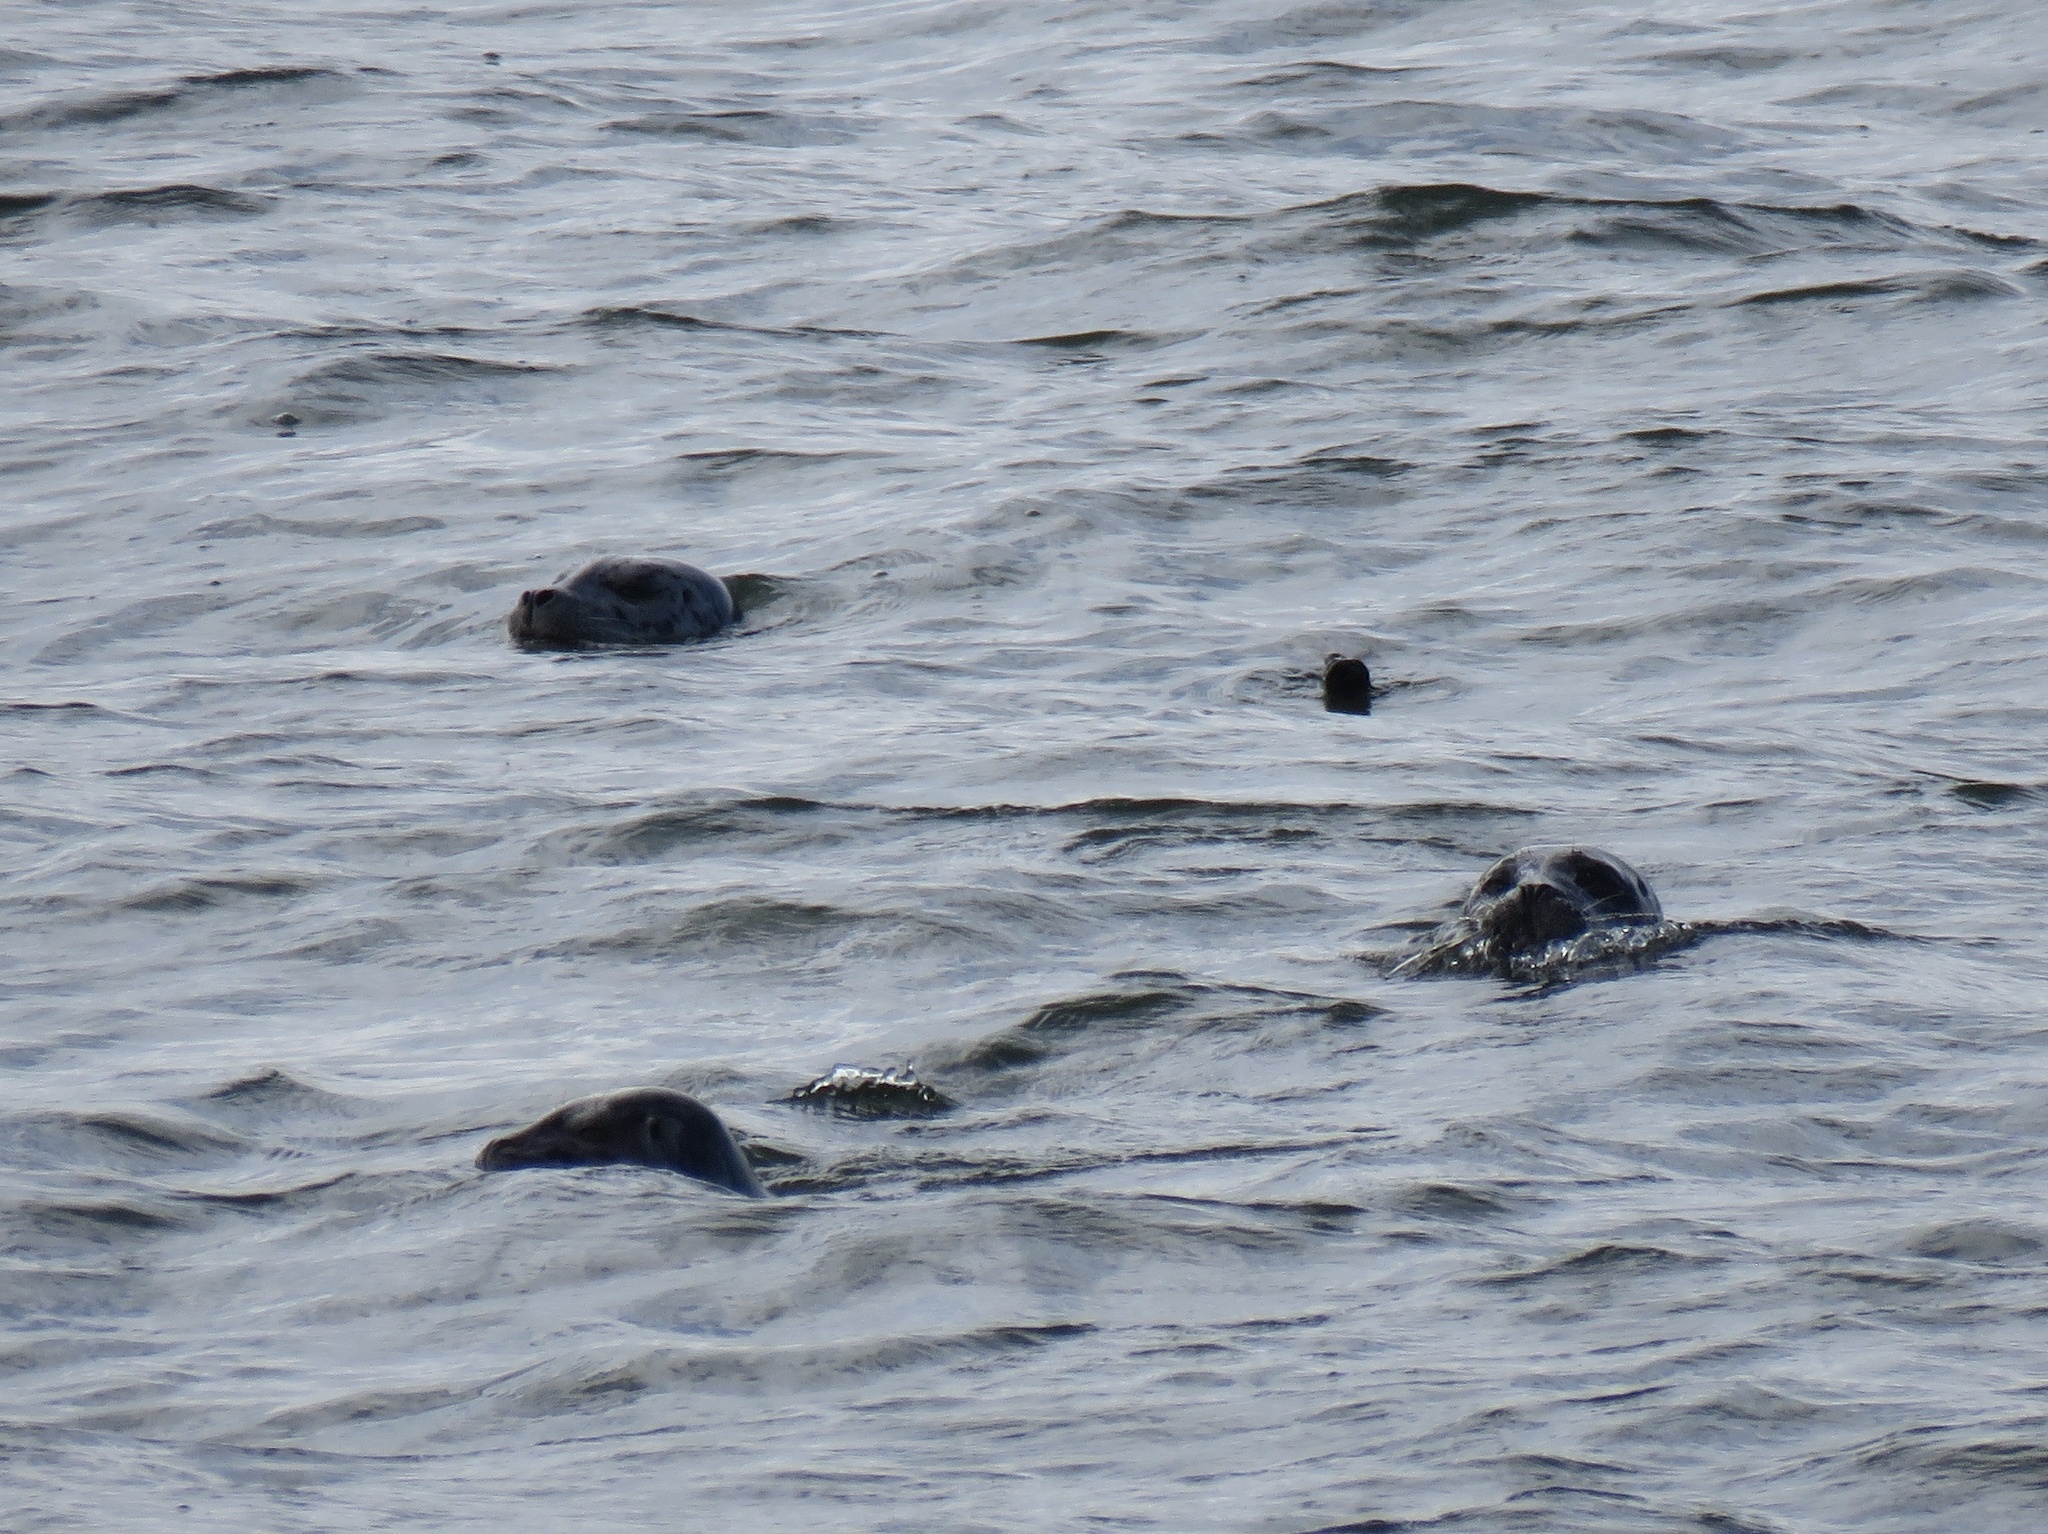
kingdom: Animalia
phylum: Chordata
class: Mammalia
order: Carnivora
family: Phocidae
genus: Phoca
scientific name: Phoca vitulina
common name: Harbor seal
